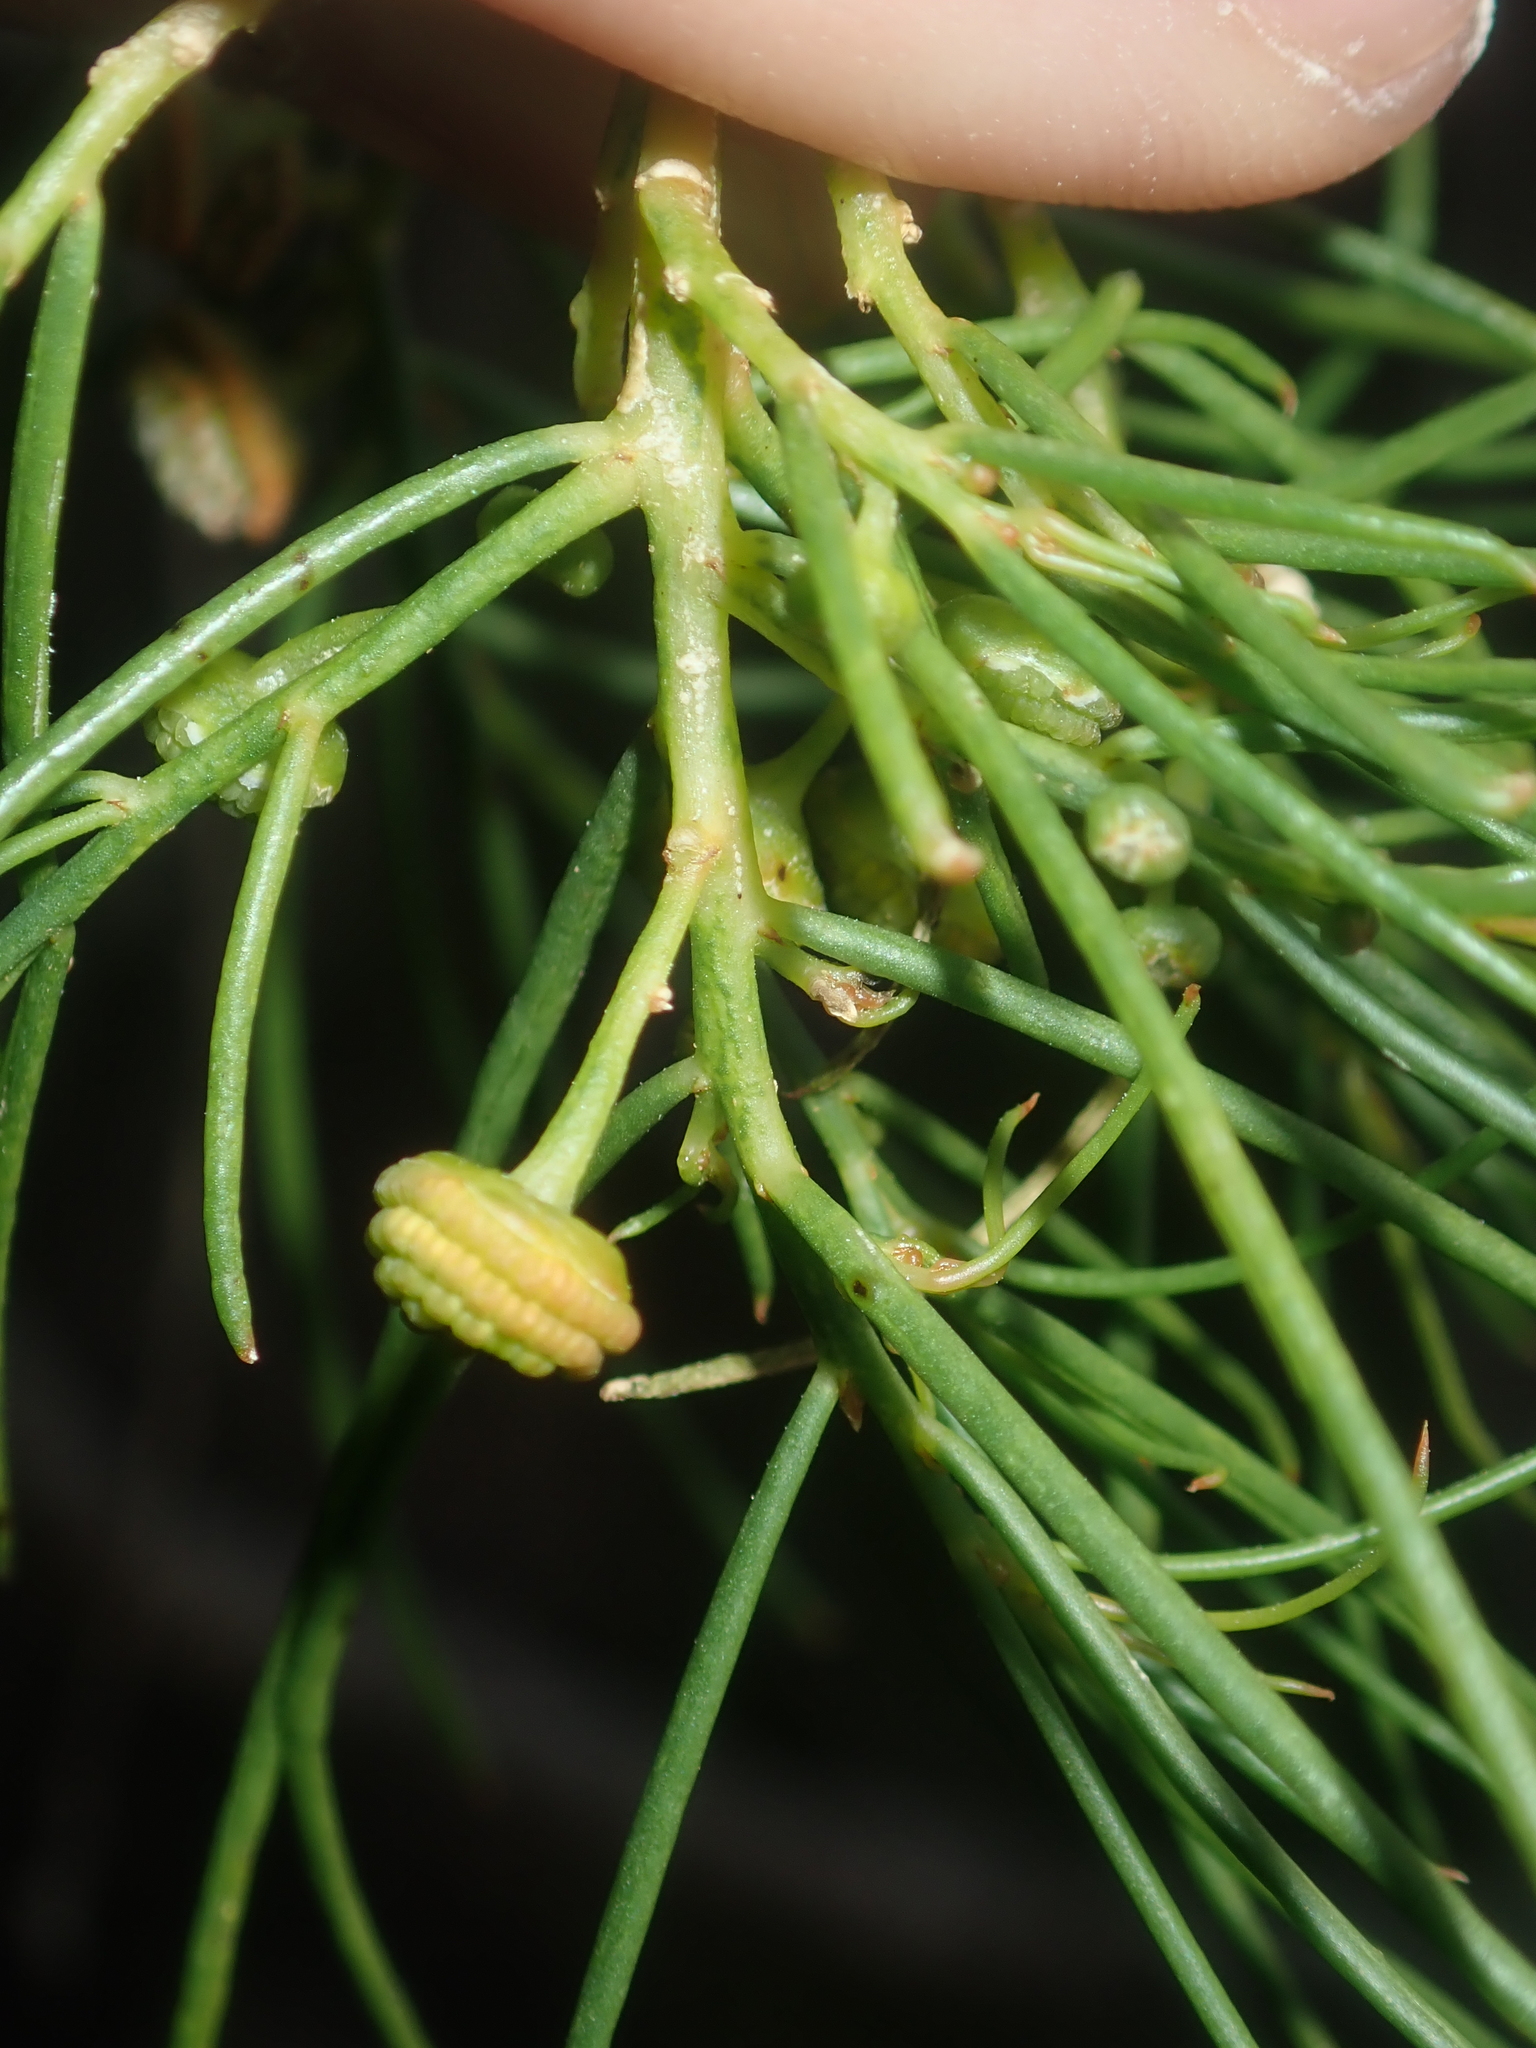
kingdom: Plantae
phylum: Tracheophyta
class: Magnoliopsida
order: Brassicales
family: Gyrostemonaceae
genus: Gyrostemon
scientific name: Gyrostemon ramulosus
